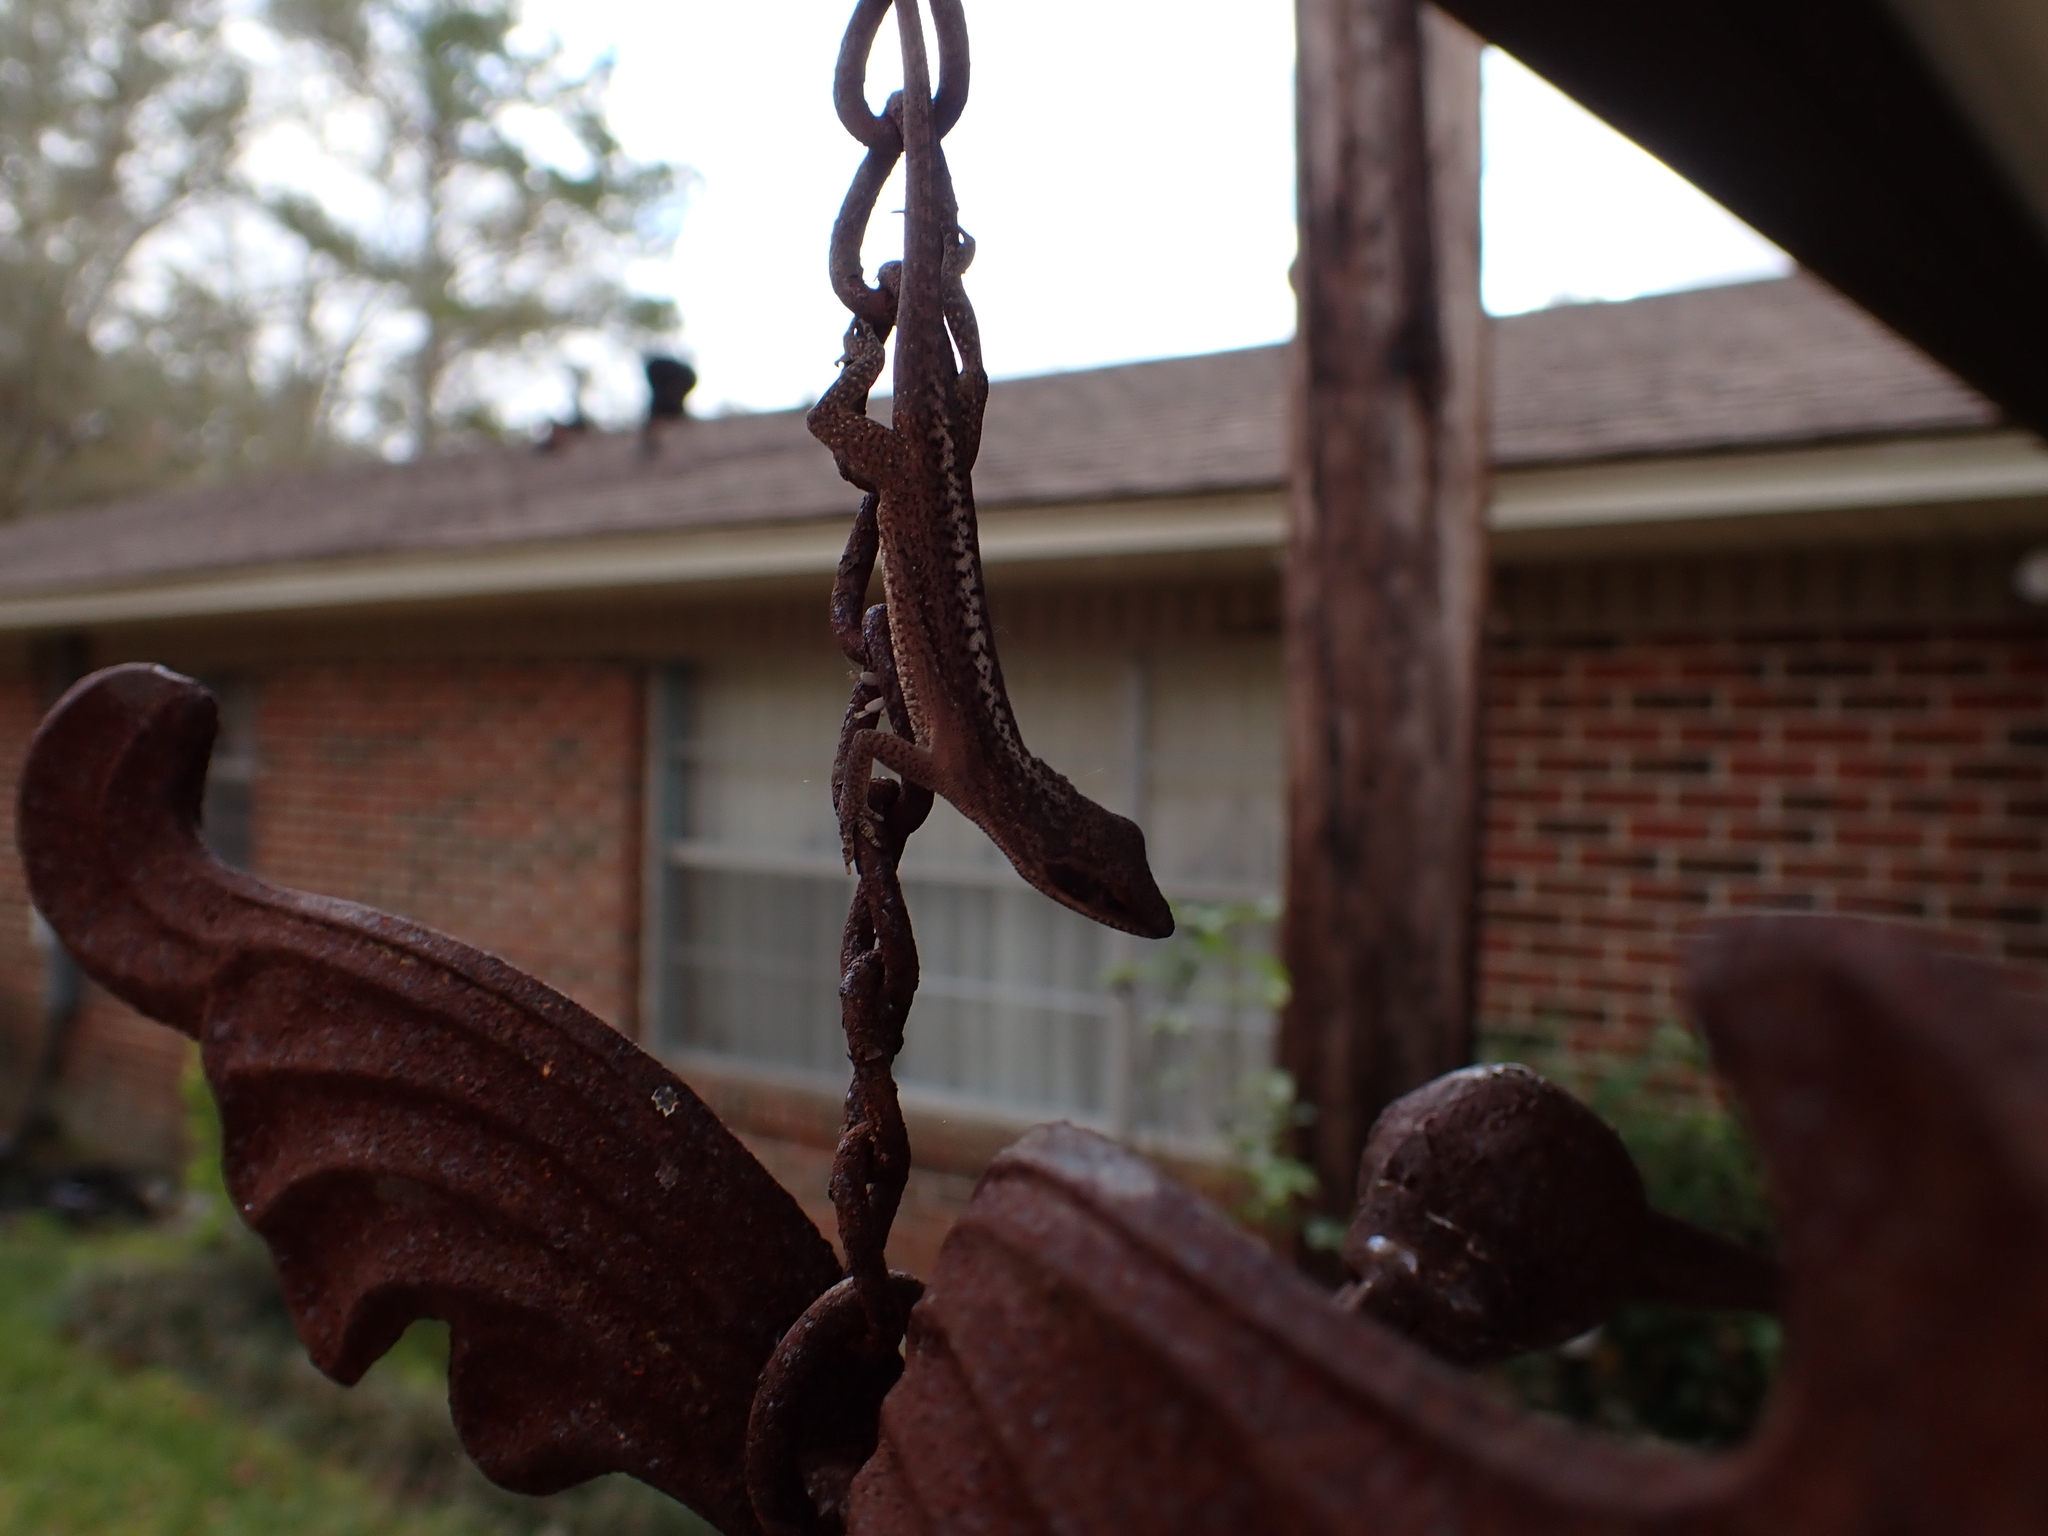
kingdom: Animalia
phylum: Chordata
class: Squamata
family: Dactyloidae
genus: Anolis
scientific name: Anolis carolinensis
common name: Green anole
